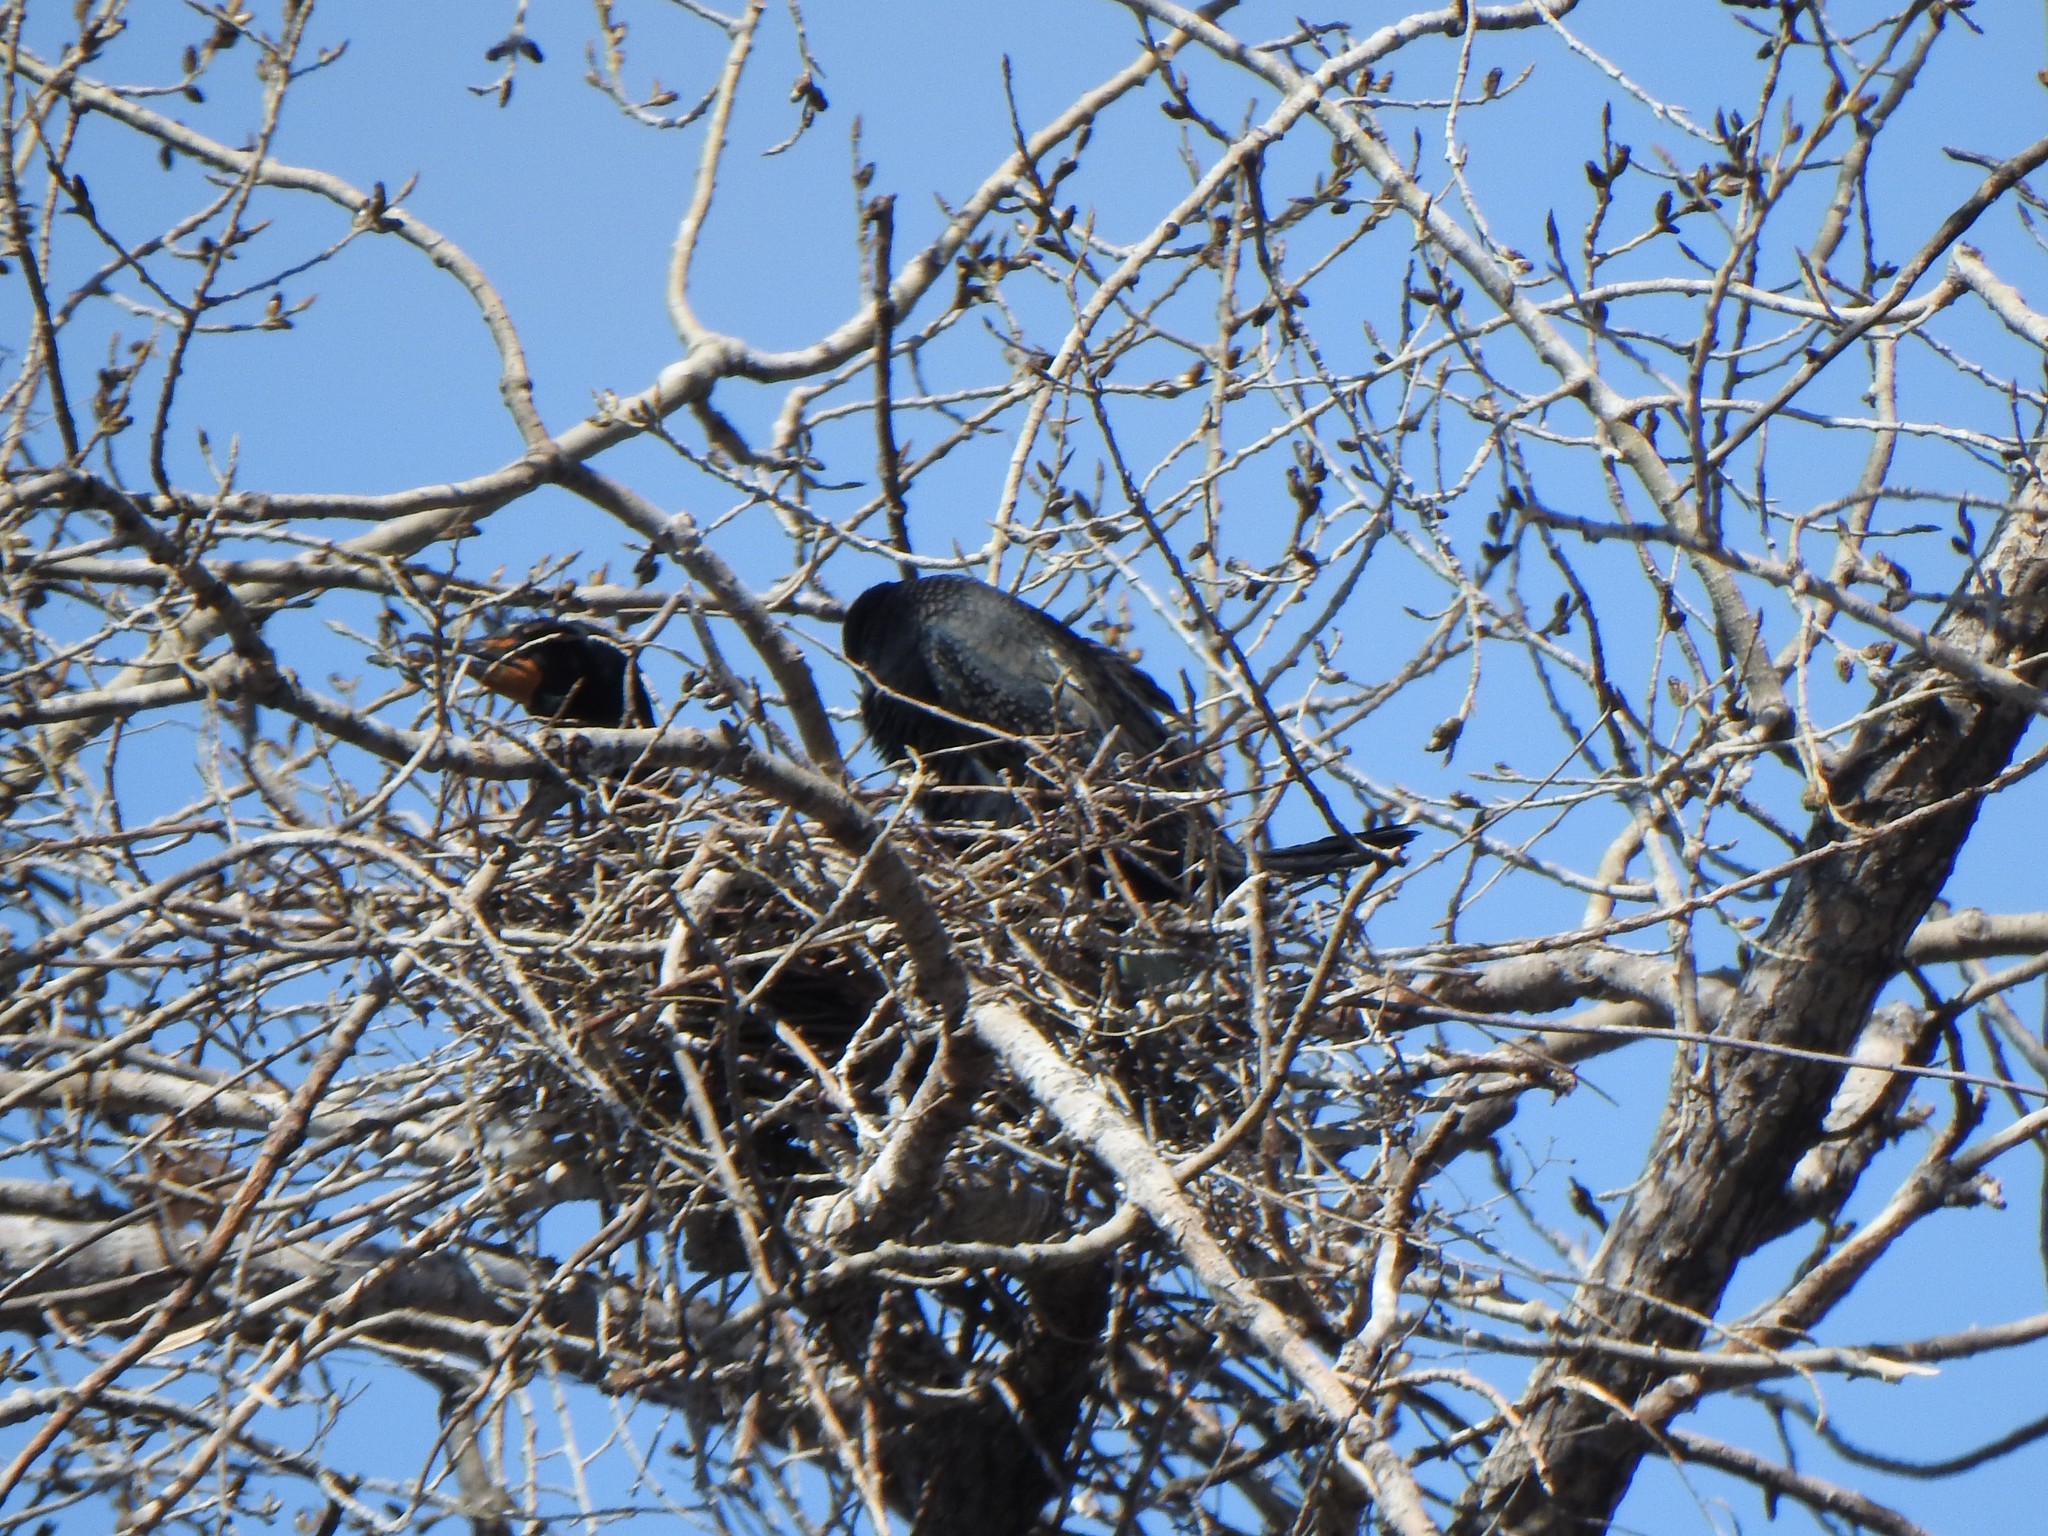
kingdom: Animalia
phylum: Chordata
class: Aves
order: Suliformes
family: Phalacrocoracidae
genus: Phalacrocorax
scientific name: Phalacrocorax auritus
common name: Double-crested cormorant
